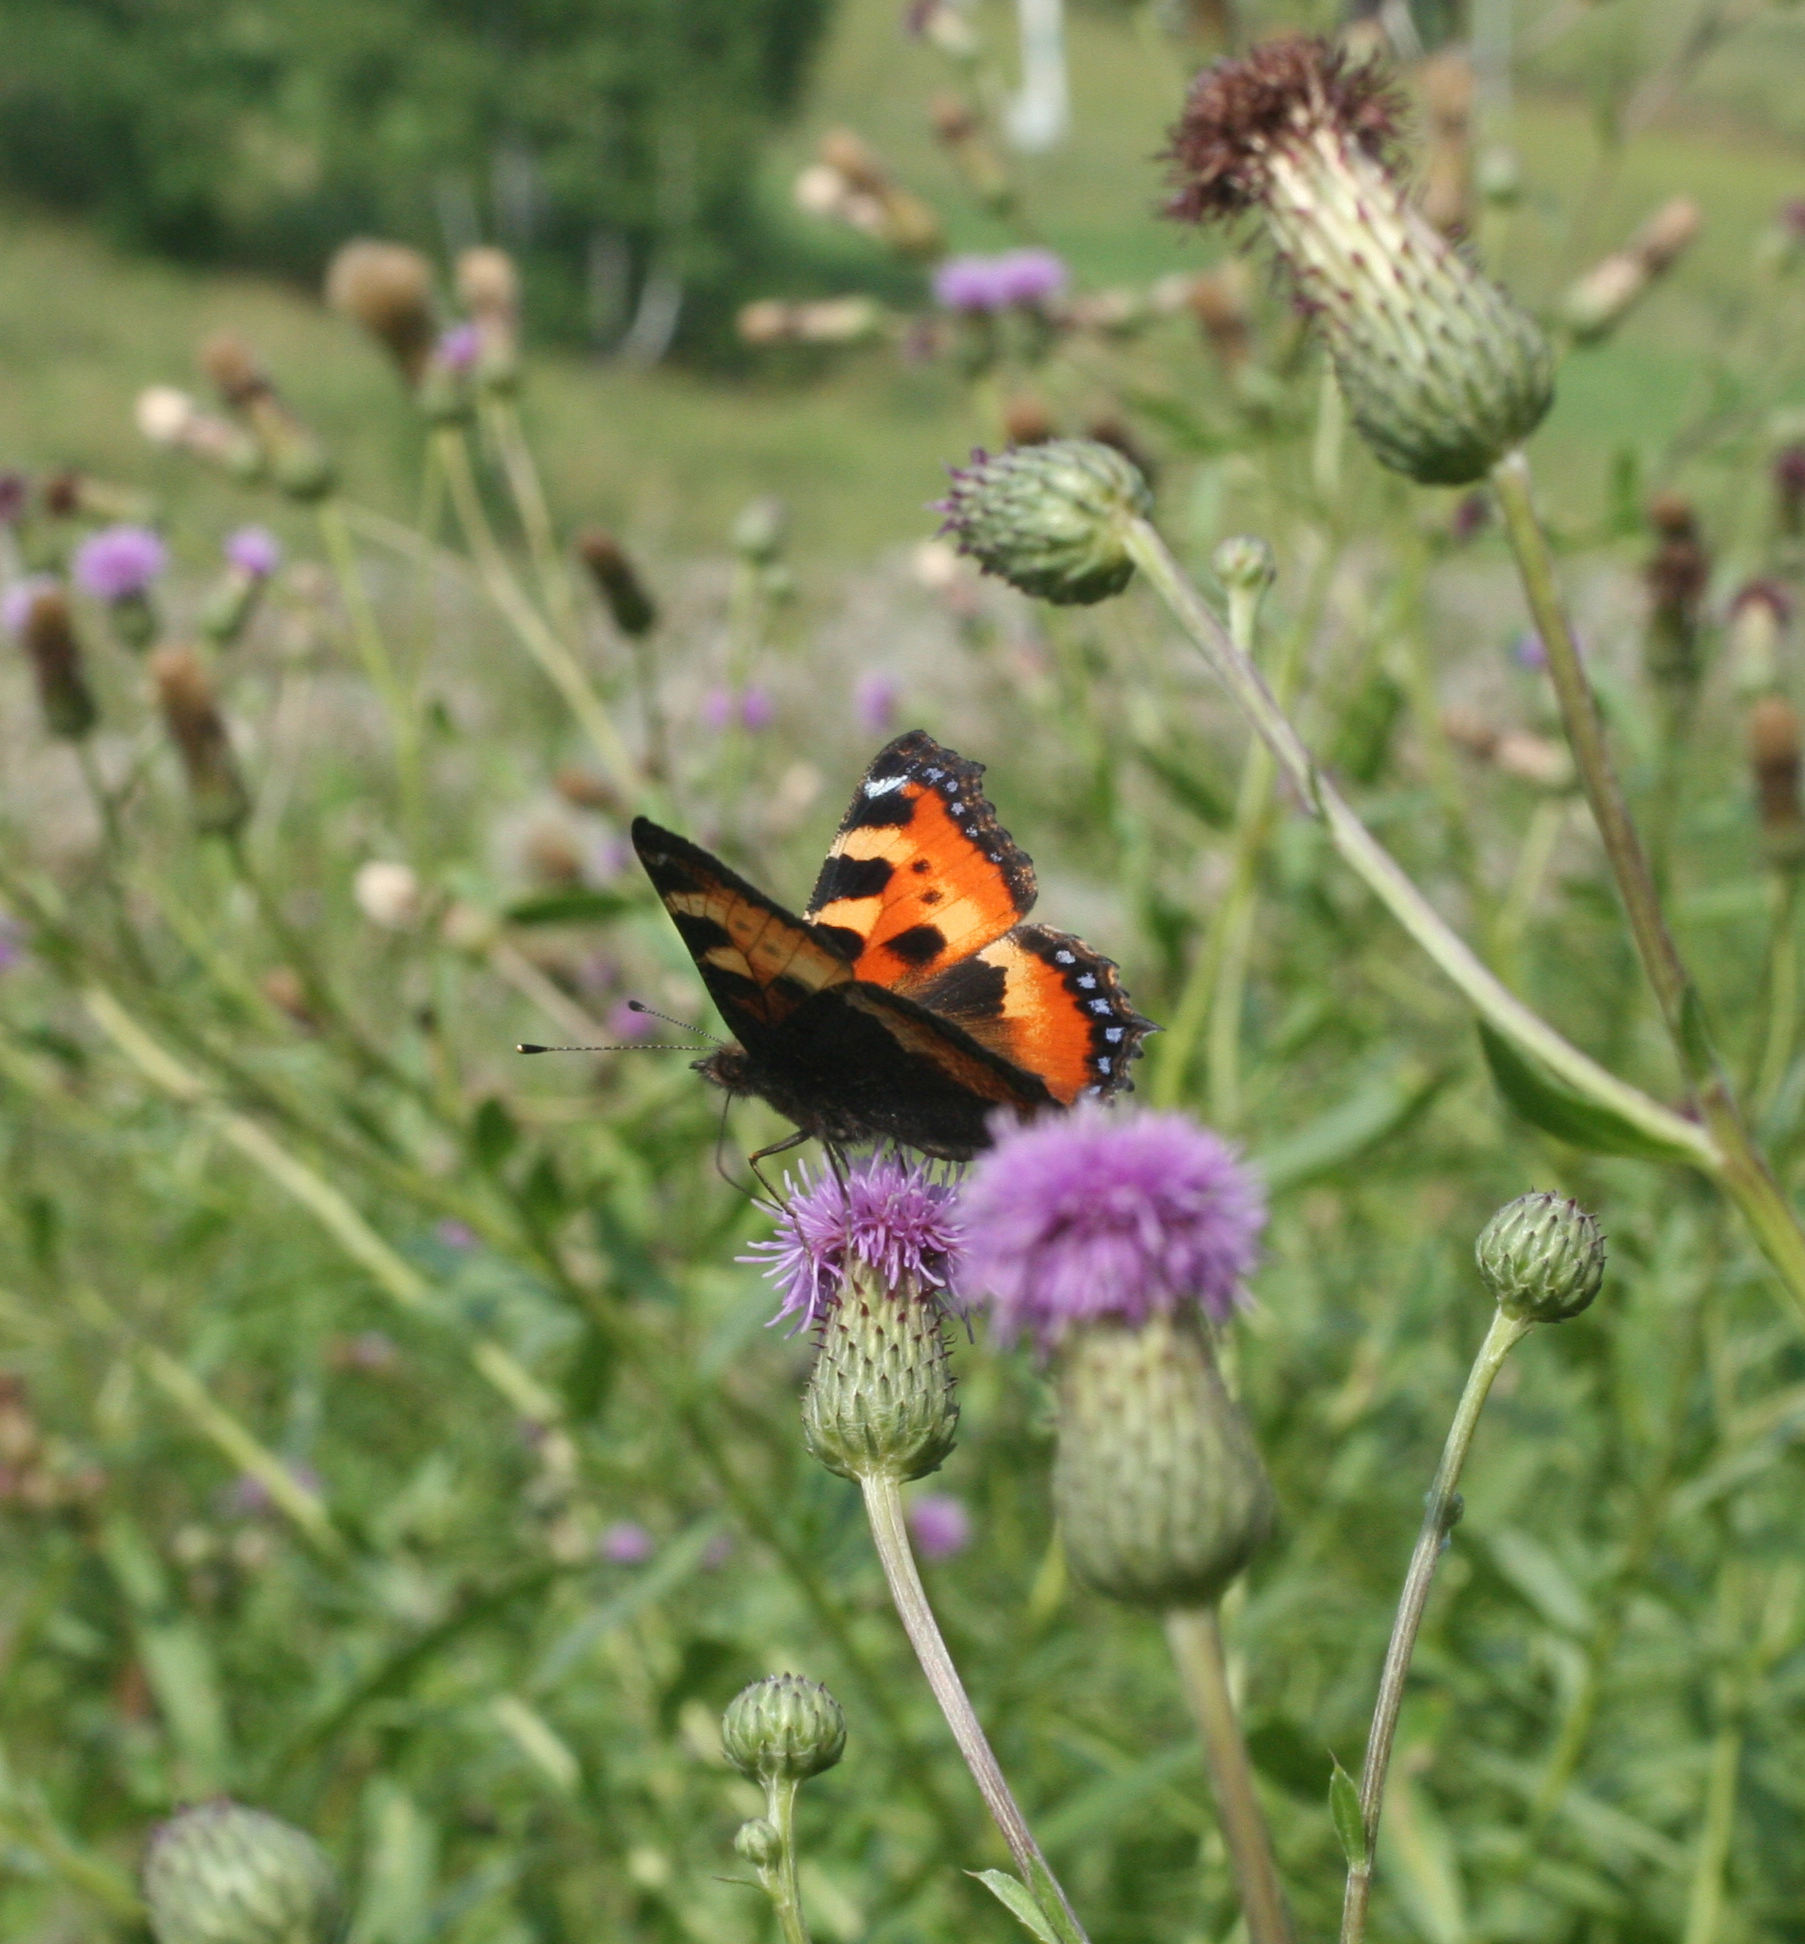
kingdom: Animalia
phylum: Arthropoda
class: Insecta
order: Lepidoptera
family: Nymphalidae
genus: Aglais
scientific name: Aglais urticae
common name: Small tortoiseshell
